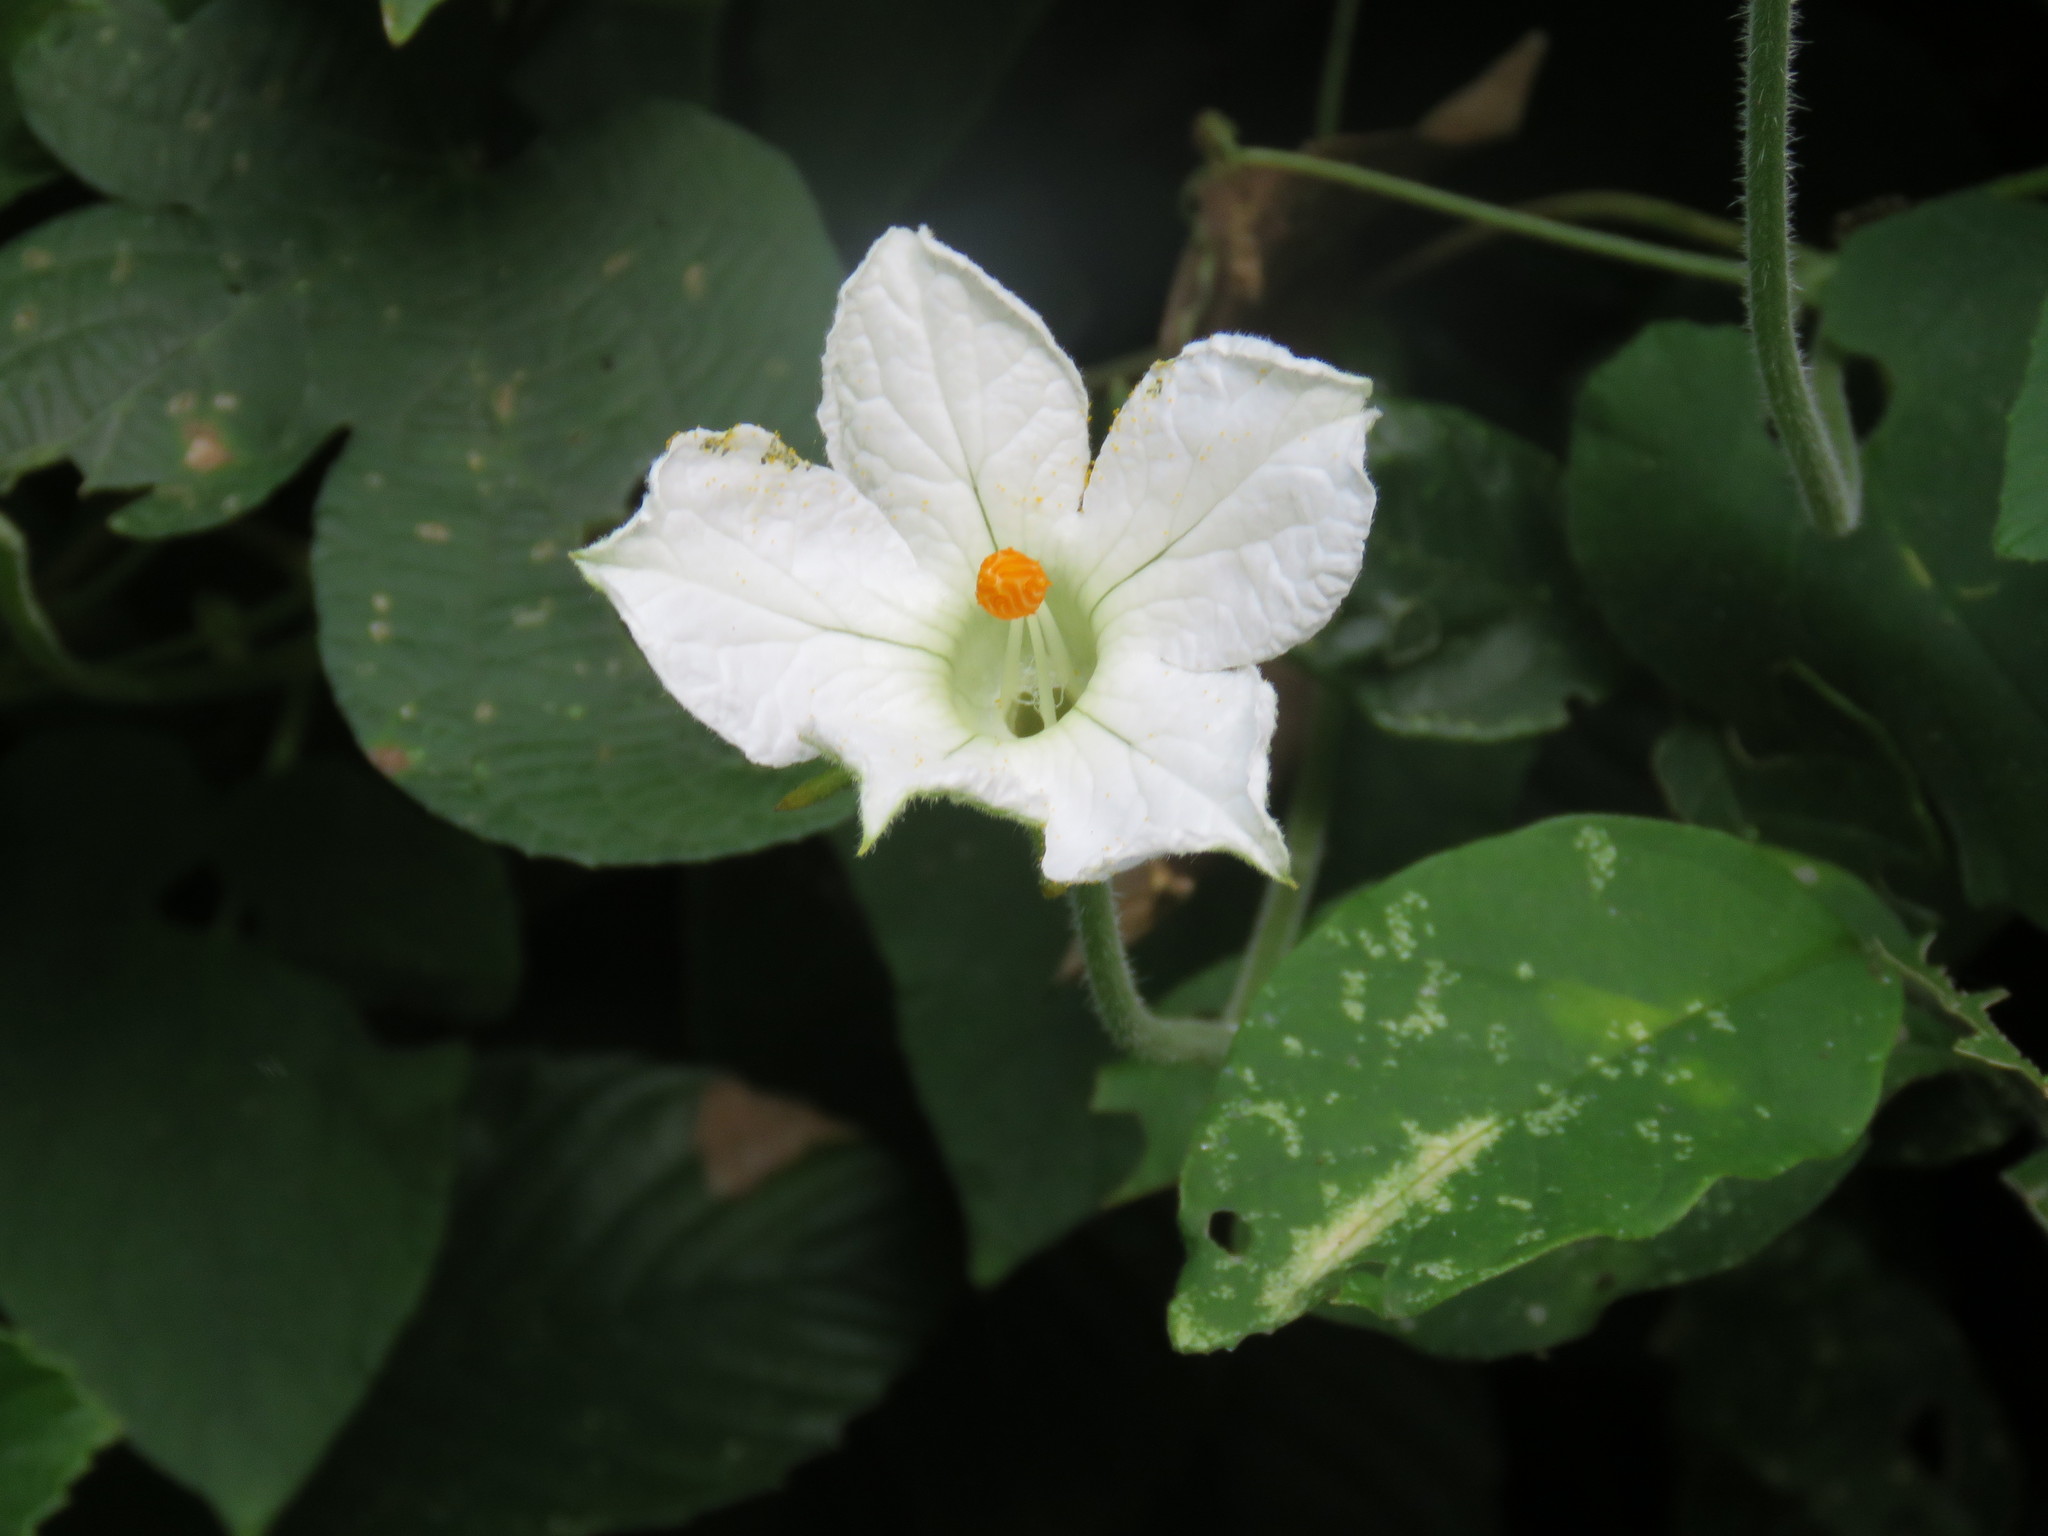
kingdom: Plantae
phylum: Tracheophyta
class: Magnoliopsida
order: Cucurbitales
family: Cucurbitaceae
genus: Polyclathra
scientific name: Polyclathra cucumerina
